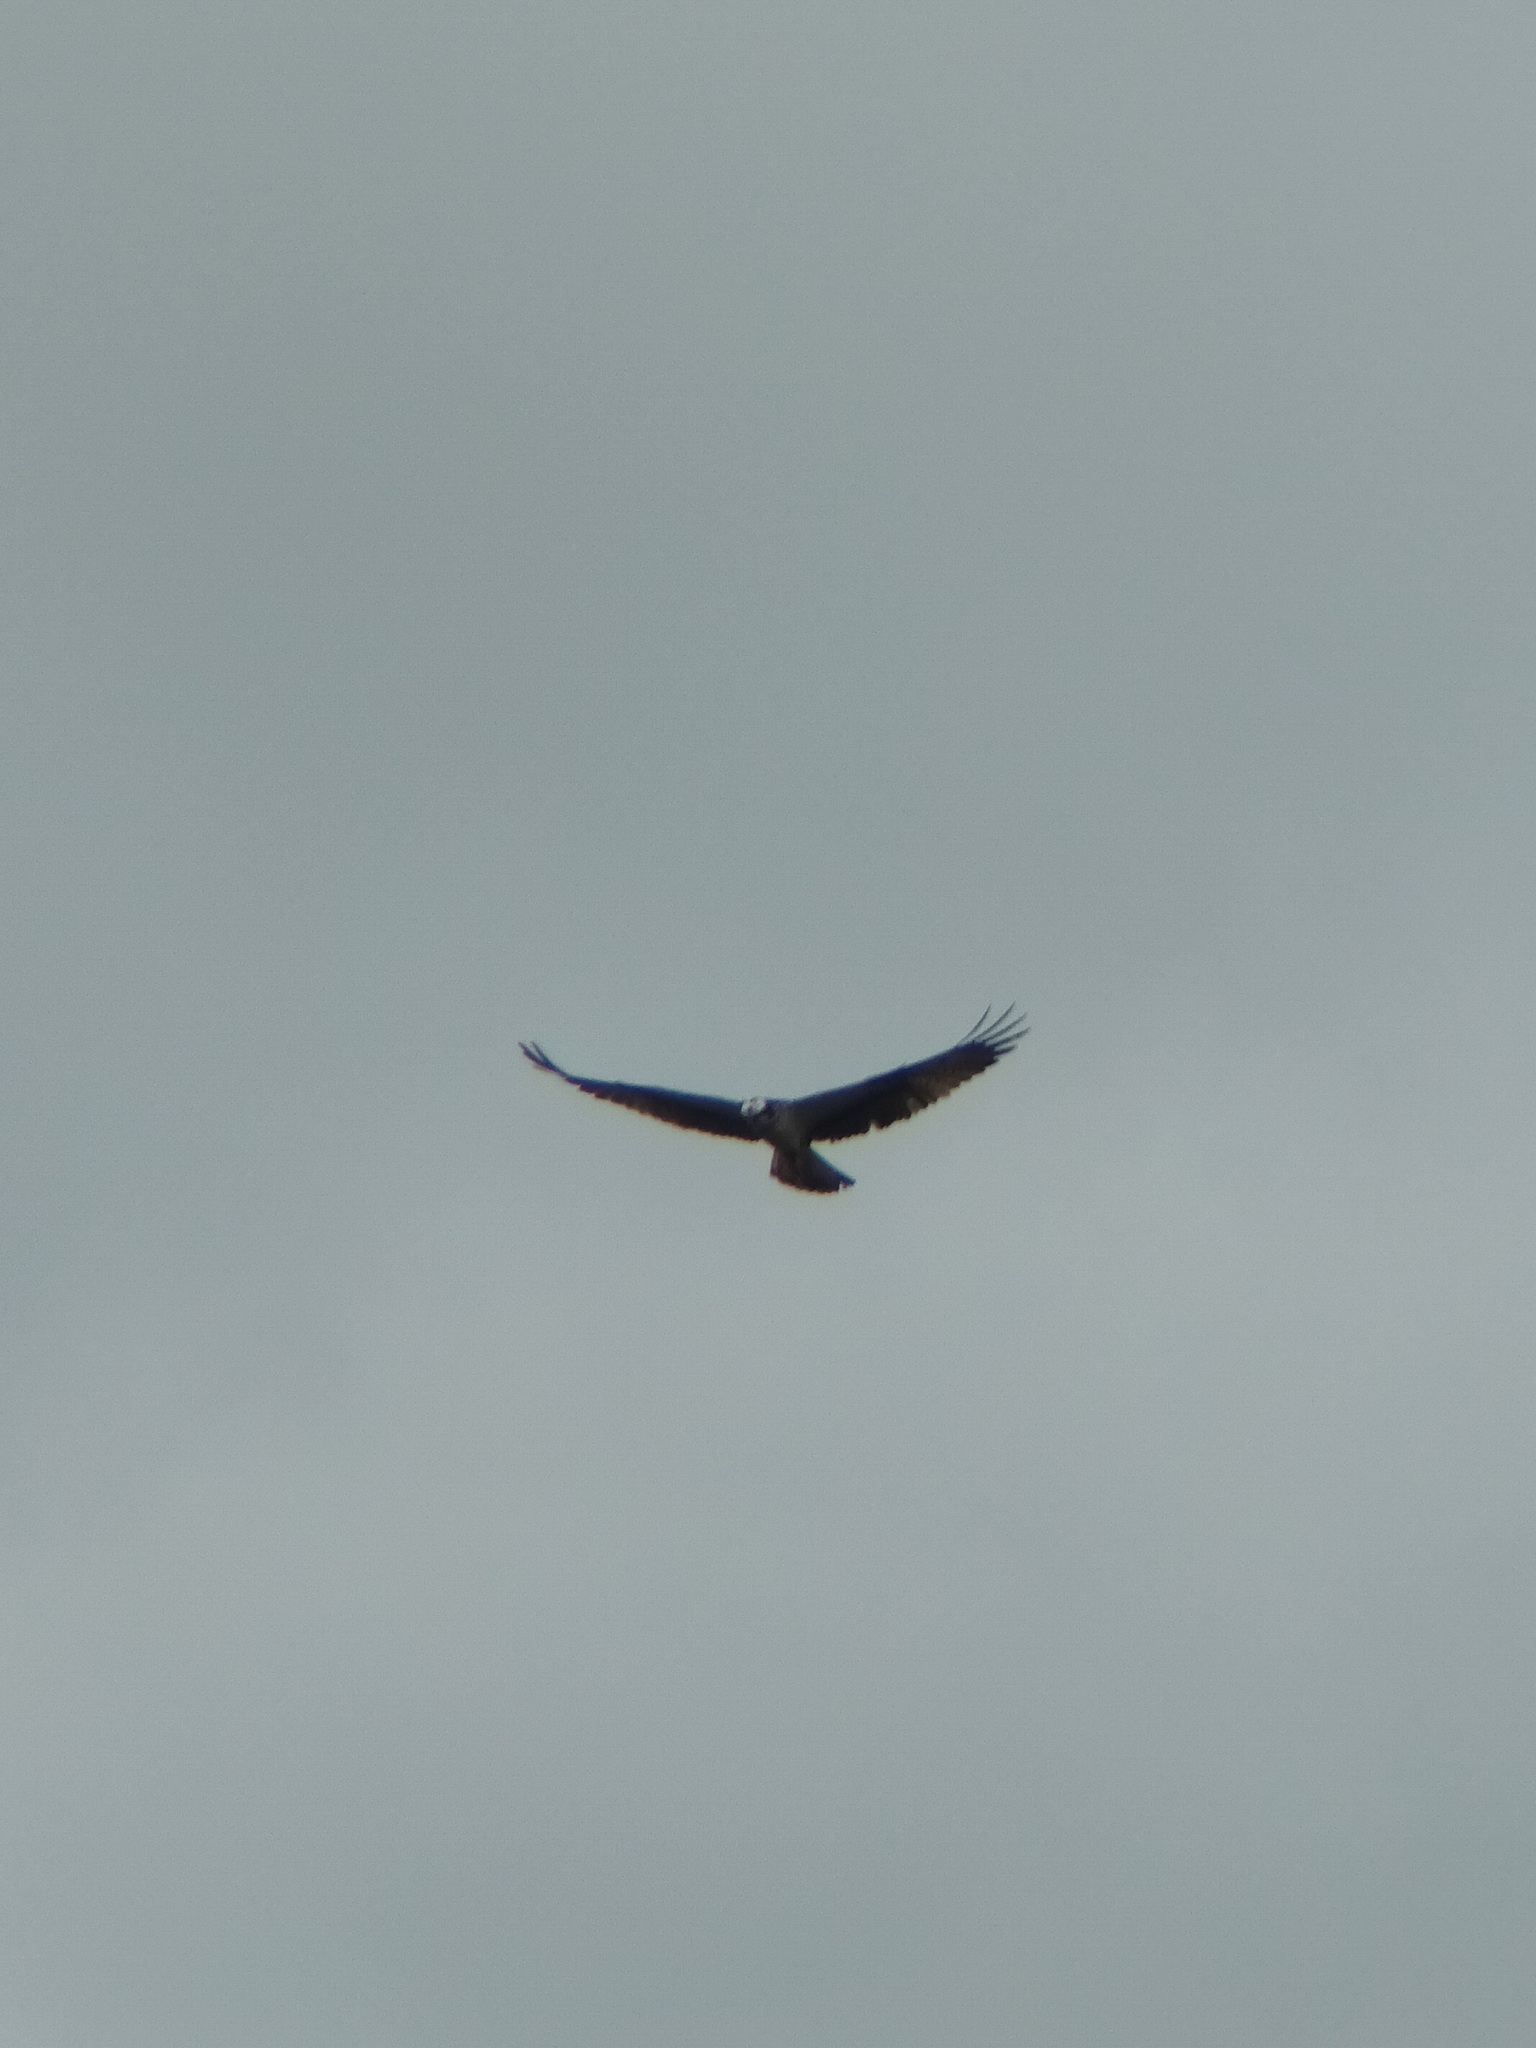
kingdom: Animalia
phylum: Chordata
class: Aves
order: Accipitriformes
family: Pandionidae
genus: Pandion
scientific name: Pandion haliaetus
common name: Osprey
